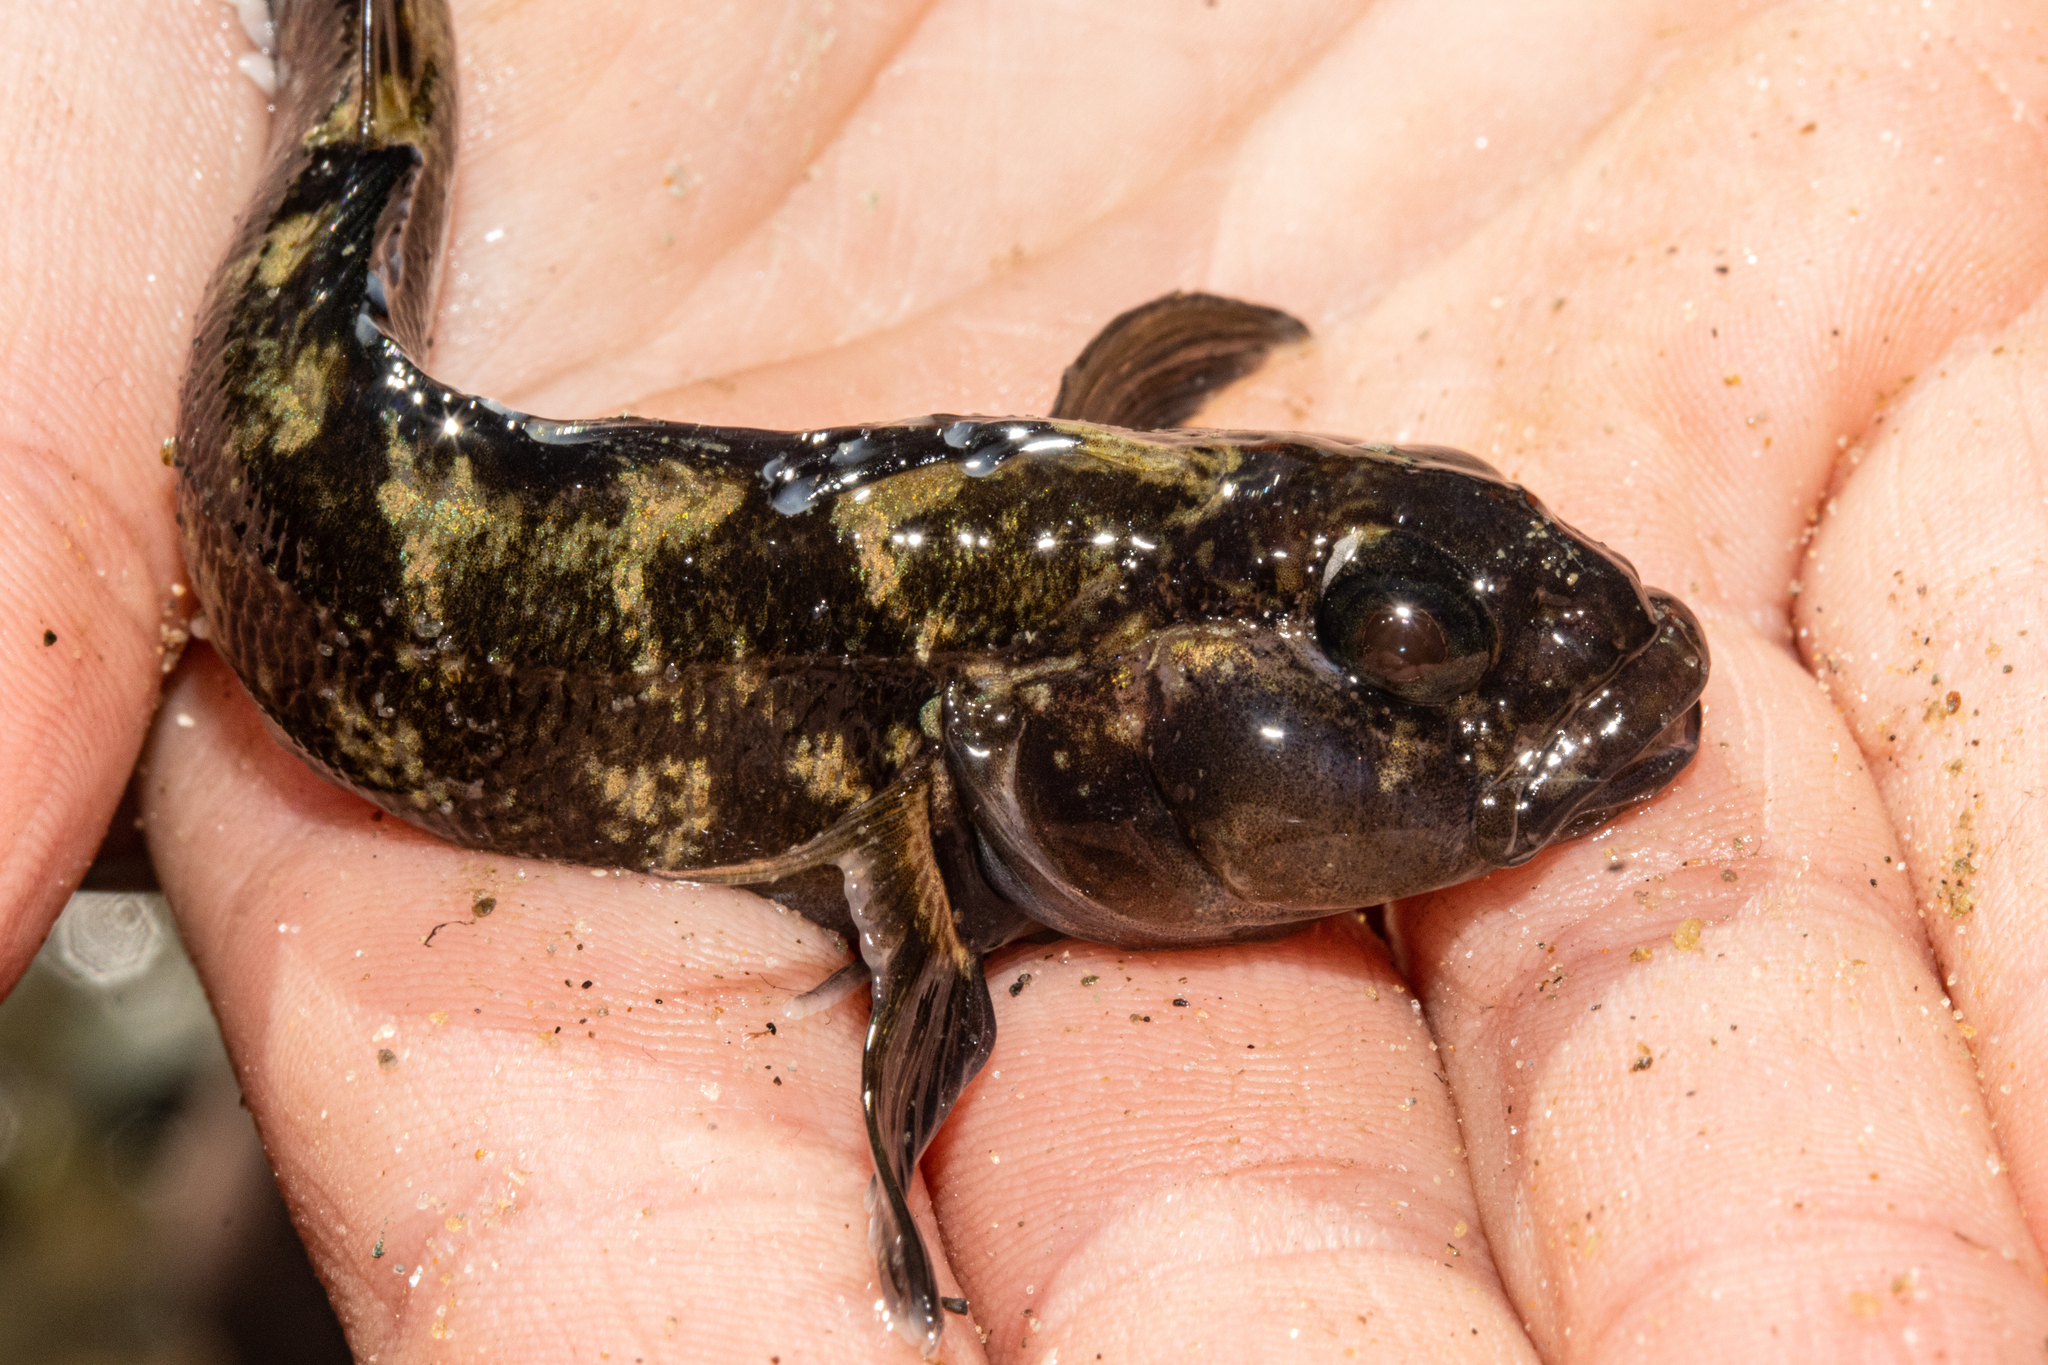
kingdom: Animalia
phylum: Chordata
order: Perciformes
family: Tripterygiidae
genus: Forsterygion
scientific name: Forsterygion gymnotum
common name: Multifid-tentacled robust triplefin
